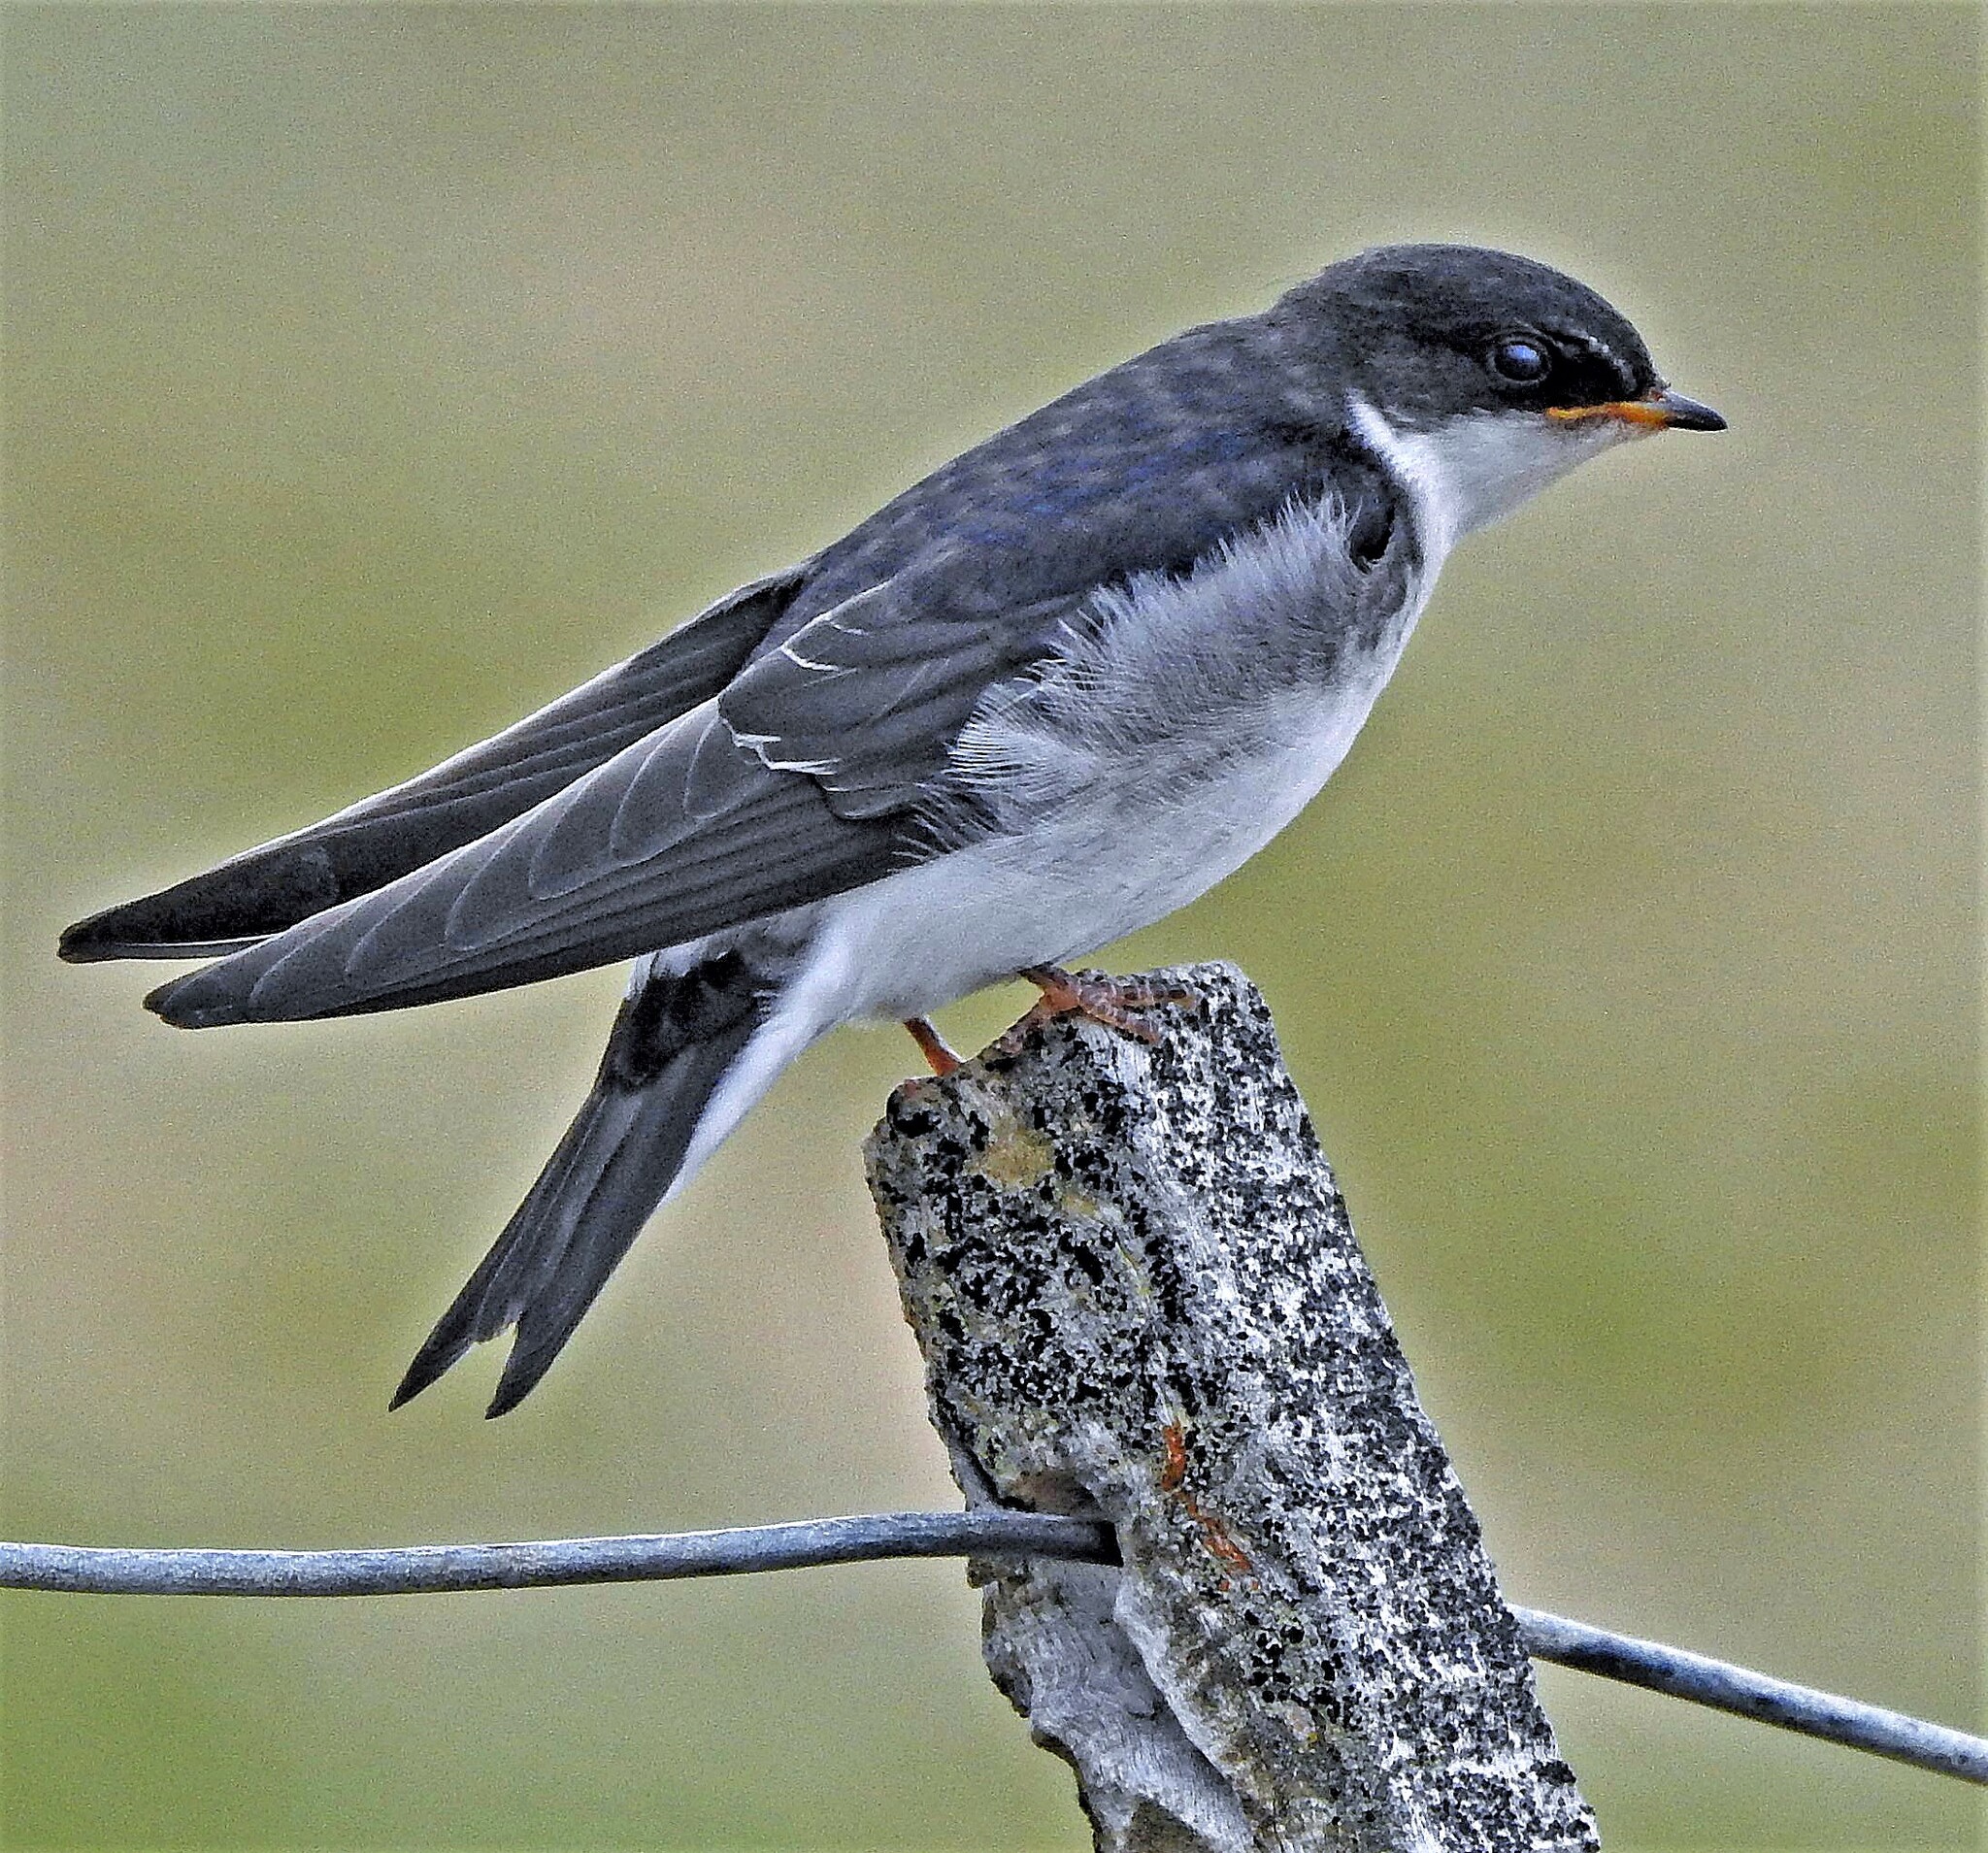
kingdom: Animalia
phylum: Chordata
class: Aves
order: Passeriformes
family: Hirundinidae
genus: Tachycineta
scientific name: Tachycineta leucopyga
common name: Chilean swallow
